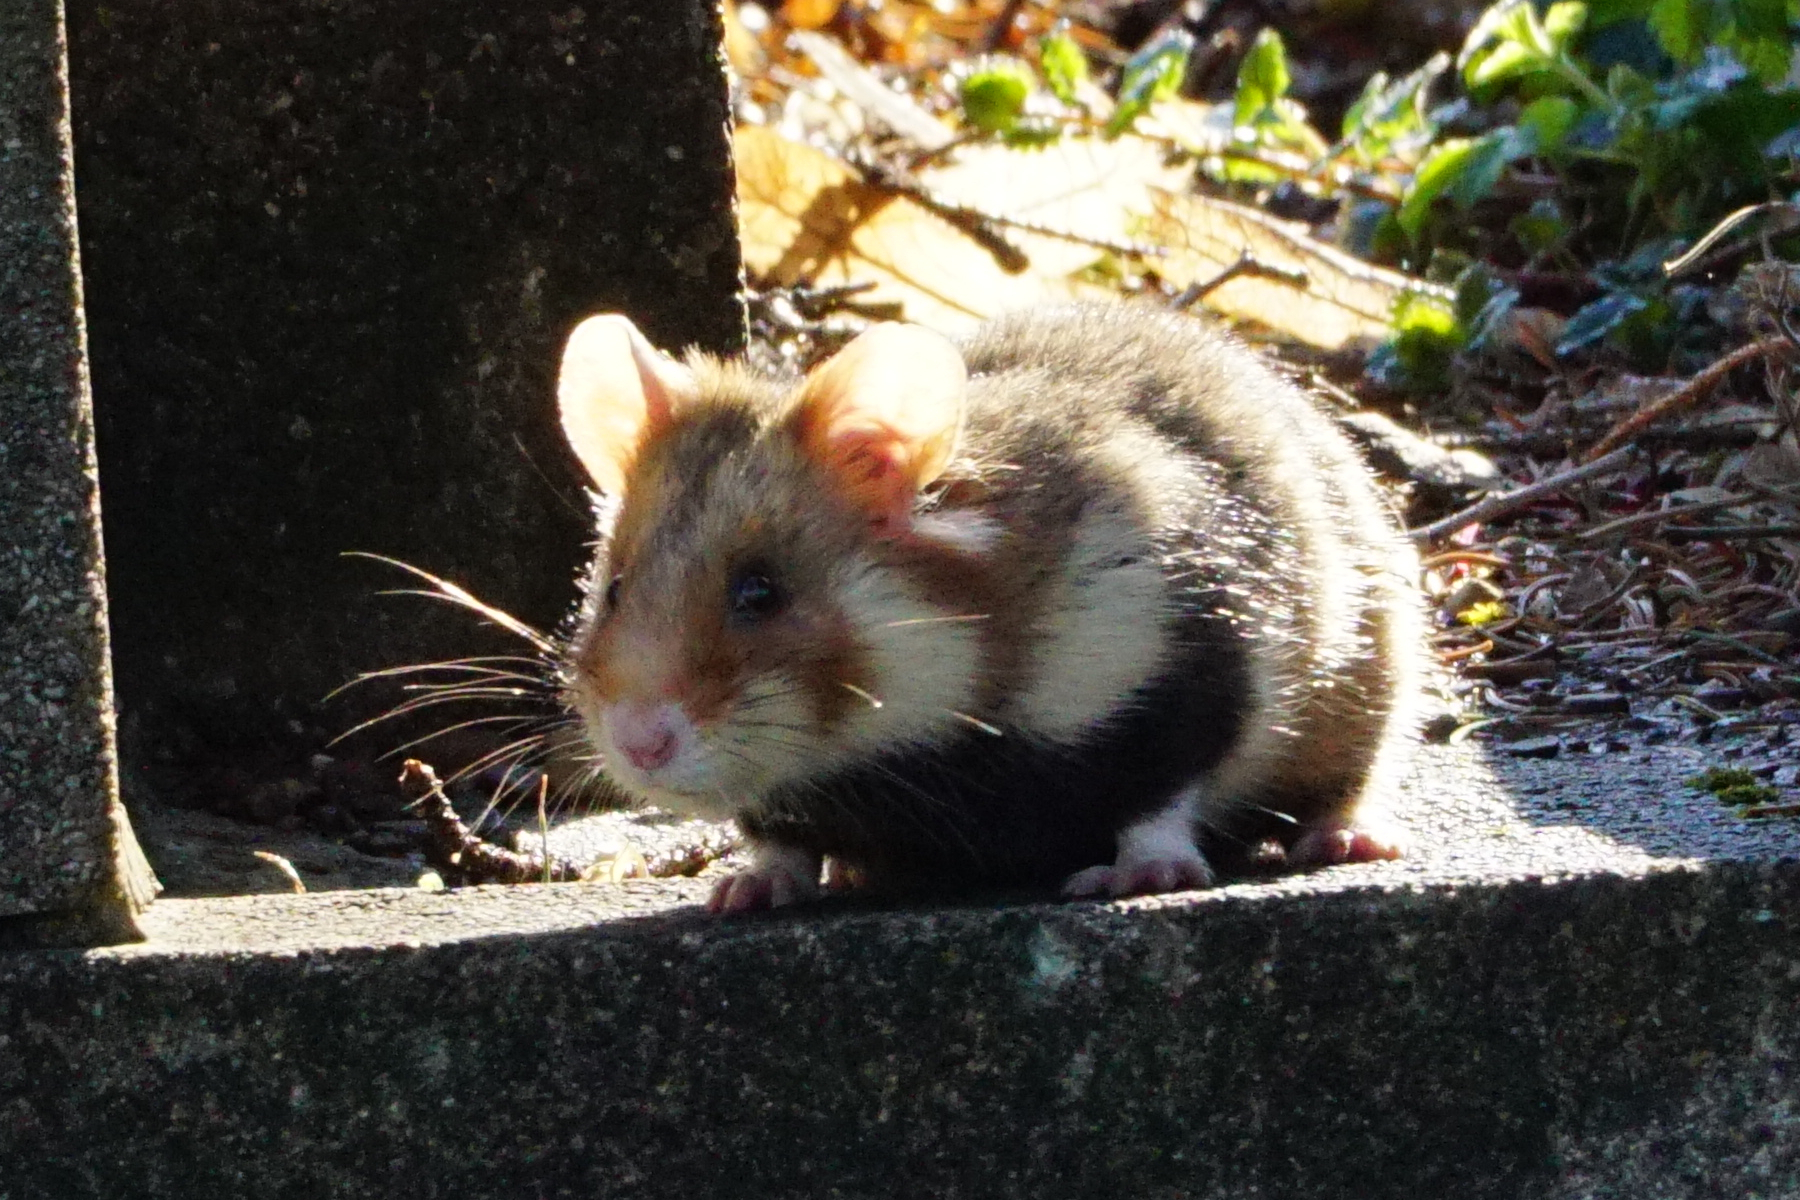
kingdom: Animalia
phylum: Chordata
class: Mammalia
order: Rodentia
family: Cricetidae
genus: Cricetus
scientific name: Cricetus cricetus
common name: Common hamster
